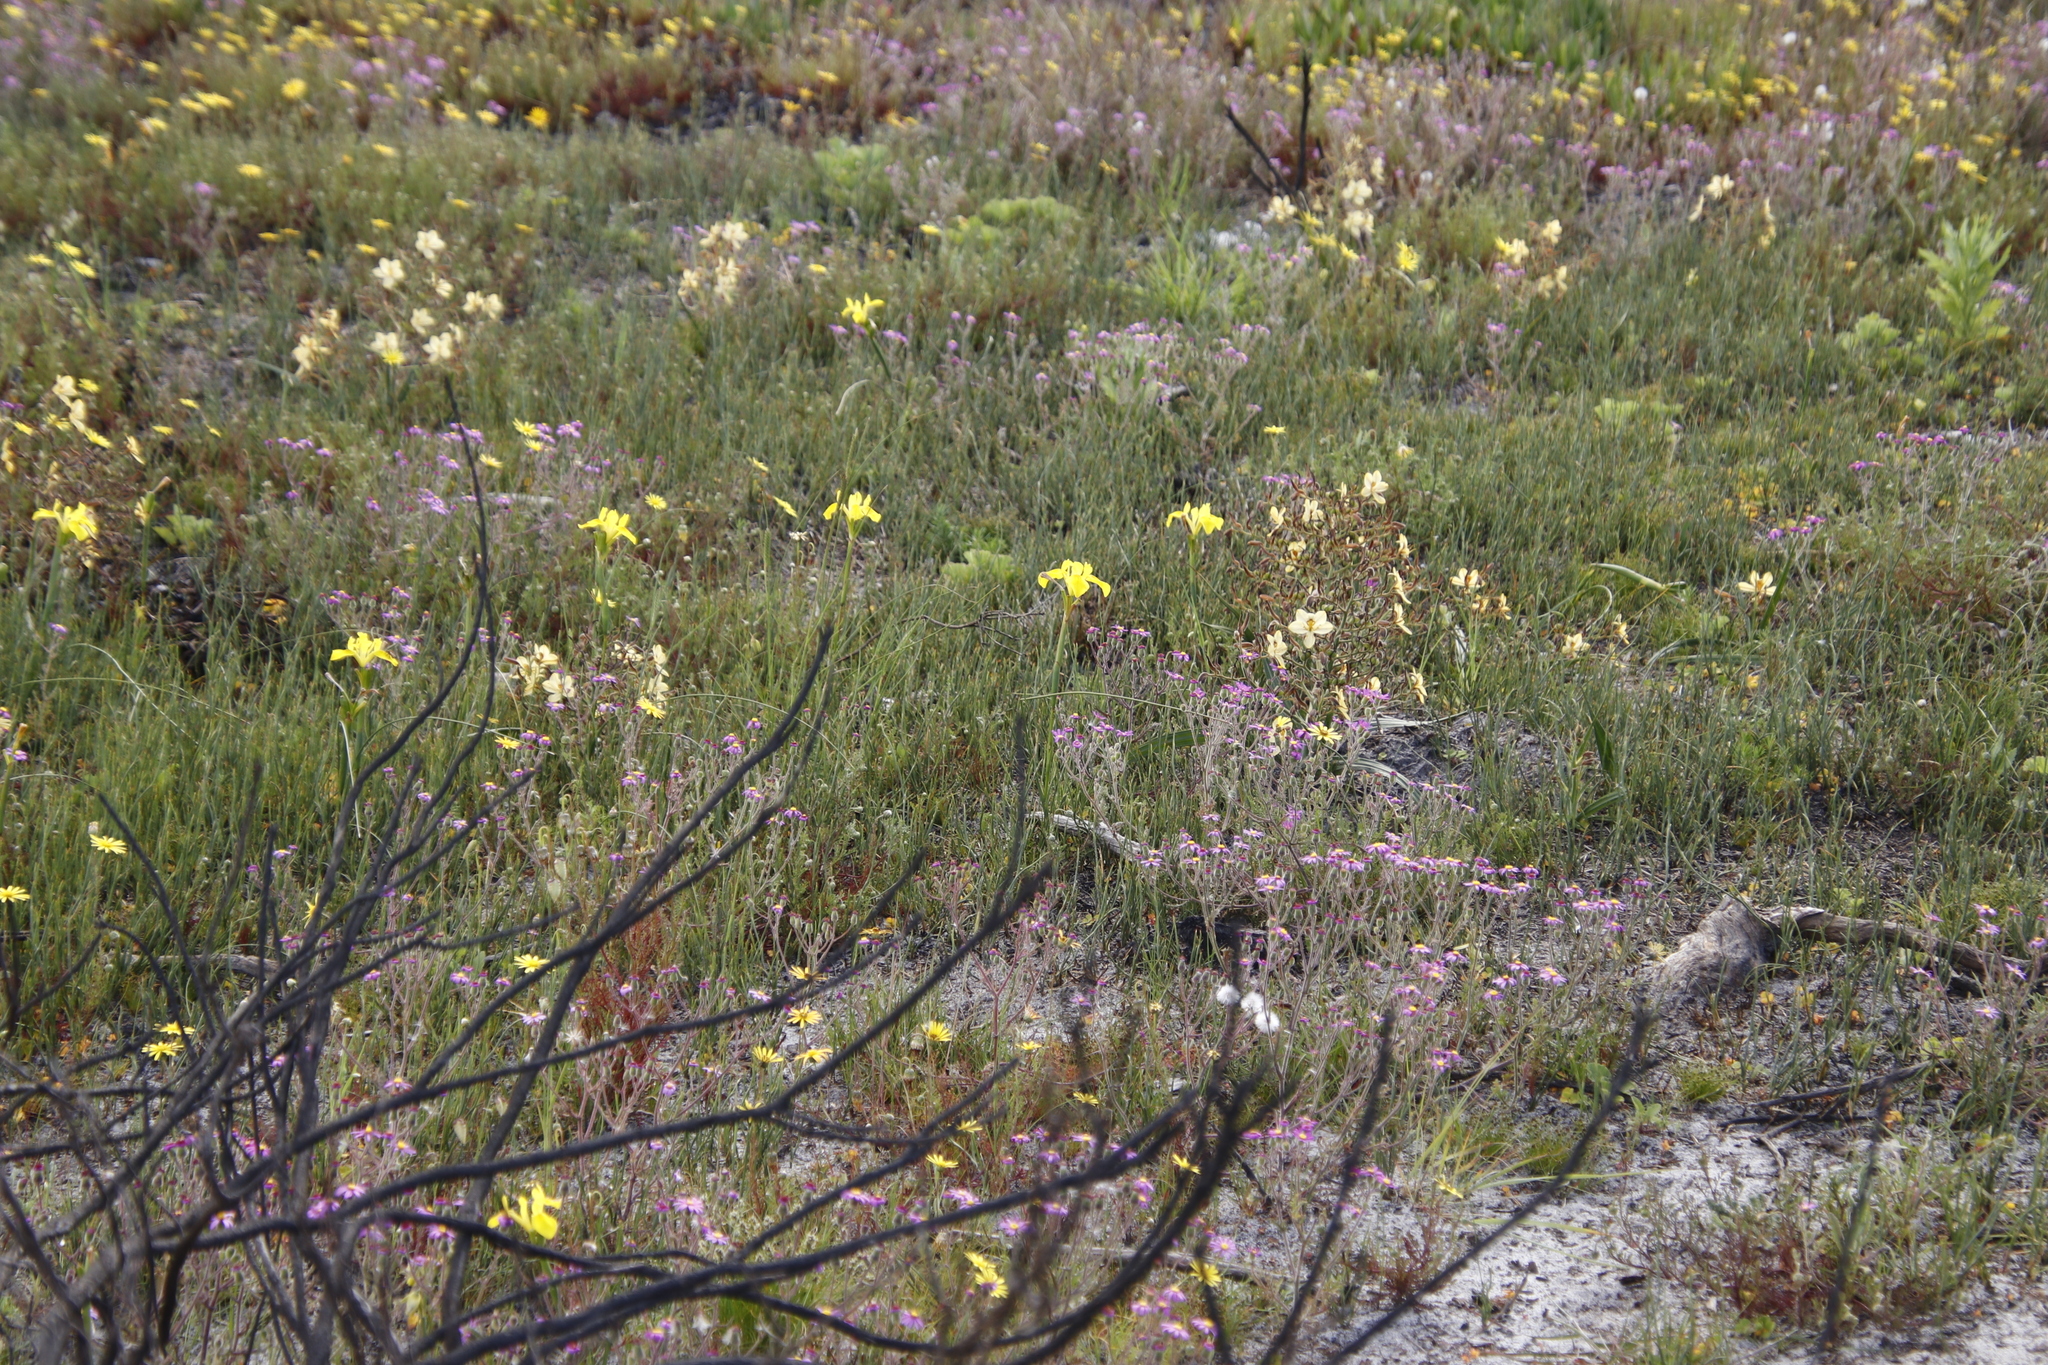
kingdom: Plantae
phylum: Tracheophyta
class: Liliopsida
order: Asparagales
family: Iridaceae
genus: Moraea
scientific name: Moraea neglecta
